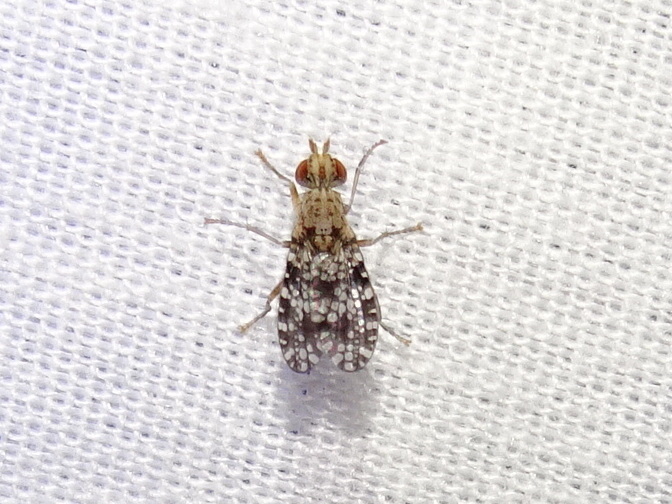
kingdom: Animalia
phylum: Arthropoda
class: Insecta
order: Diptera
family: Sciomyzidae
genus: Trypetoptera
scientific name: Trypetoptera punctulata
